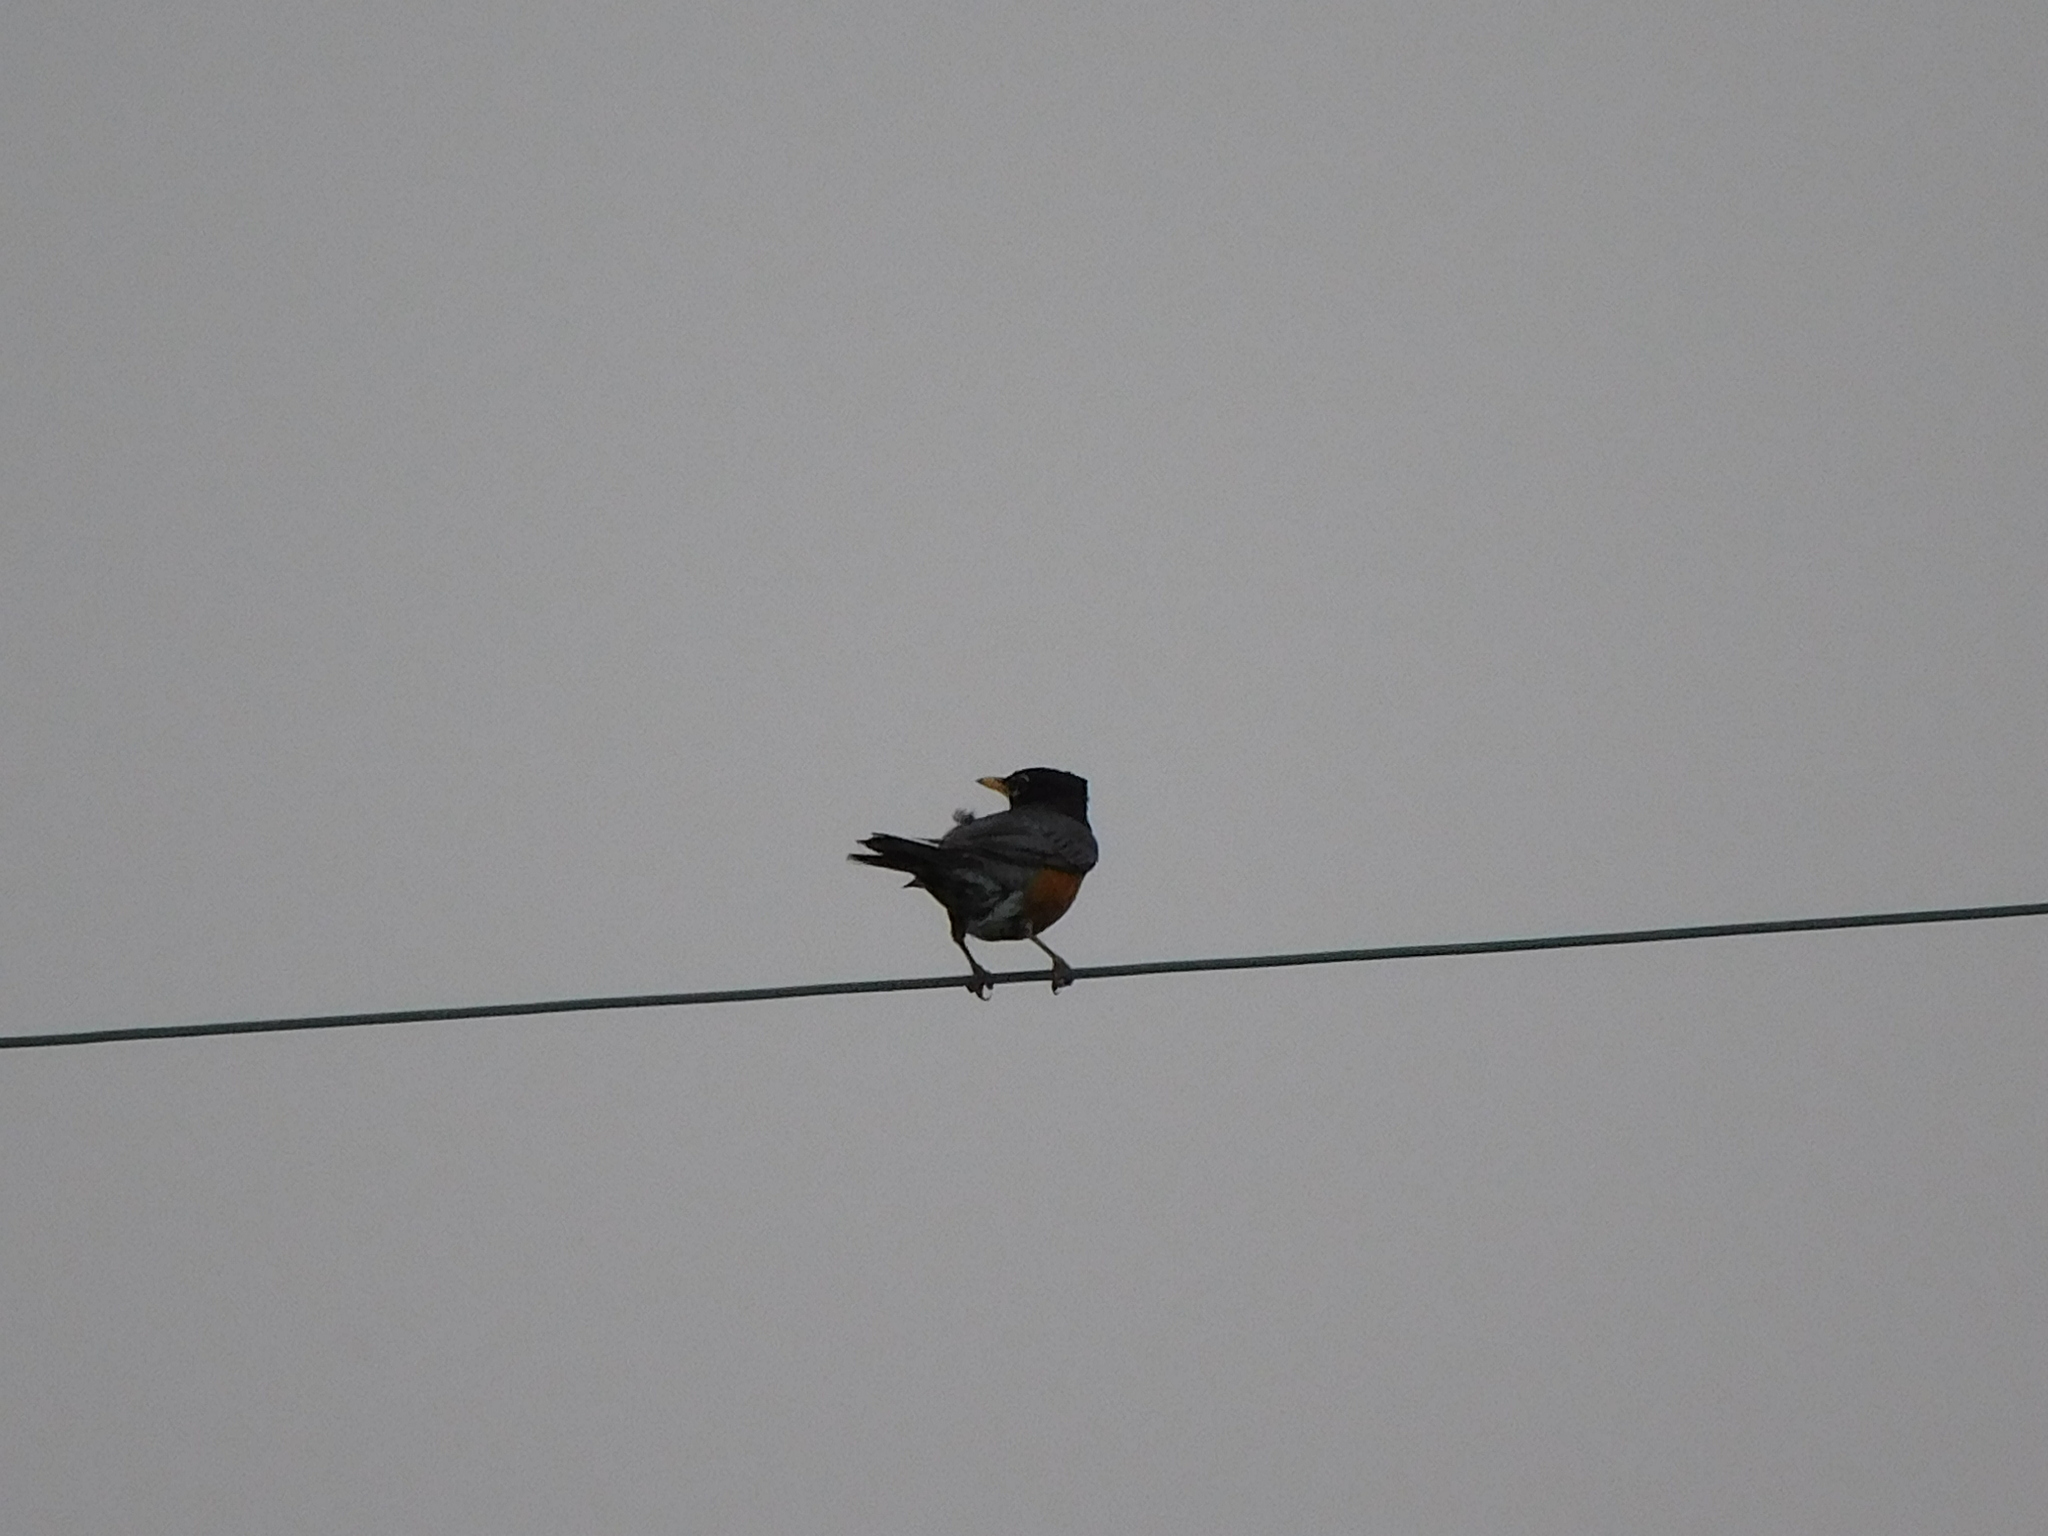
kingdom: Animalia
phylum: Chordata
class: Aves
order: Passeriformes
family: Turdidae
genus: Turdus
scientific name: Turdus migratorius
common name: American robin
